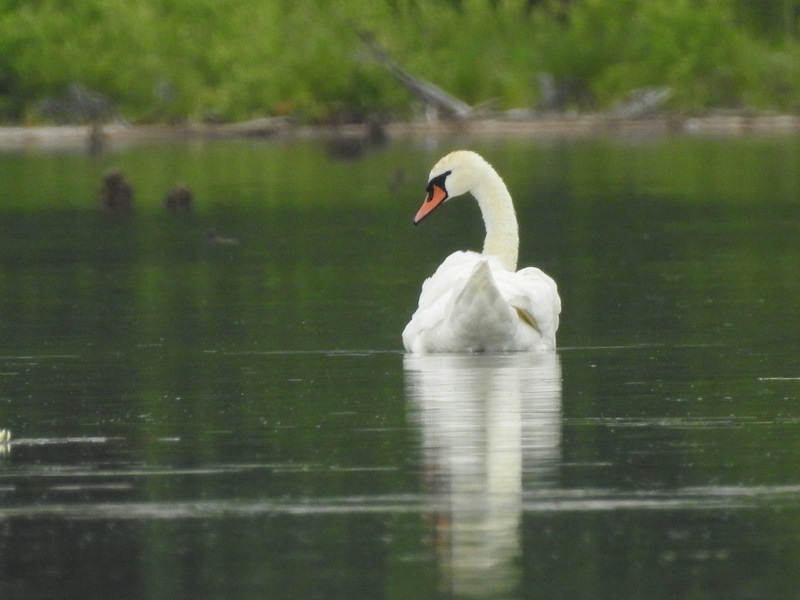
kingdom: Animalia
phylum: Chordata
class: Aves
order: Anseriformes
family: Anatidae
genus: Cygnus
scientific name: Cygnus olor
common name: Mute swan
